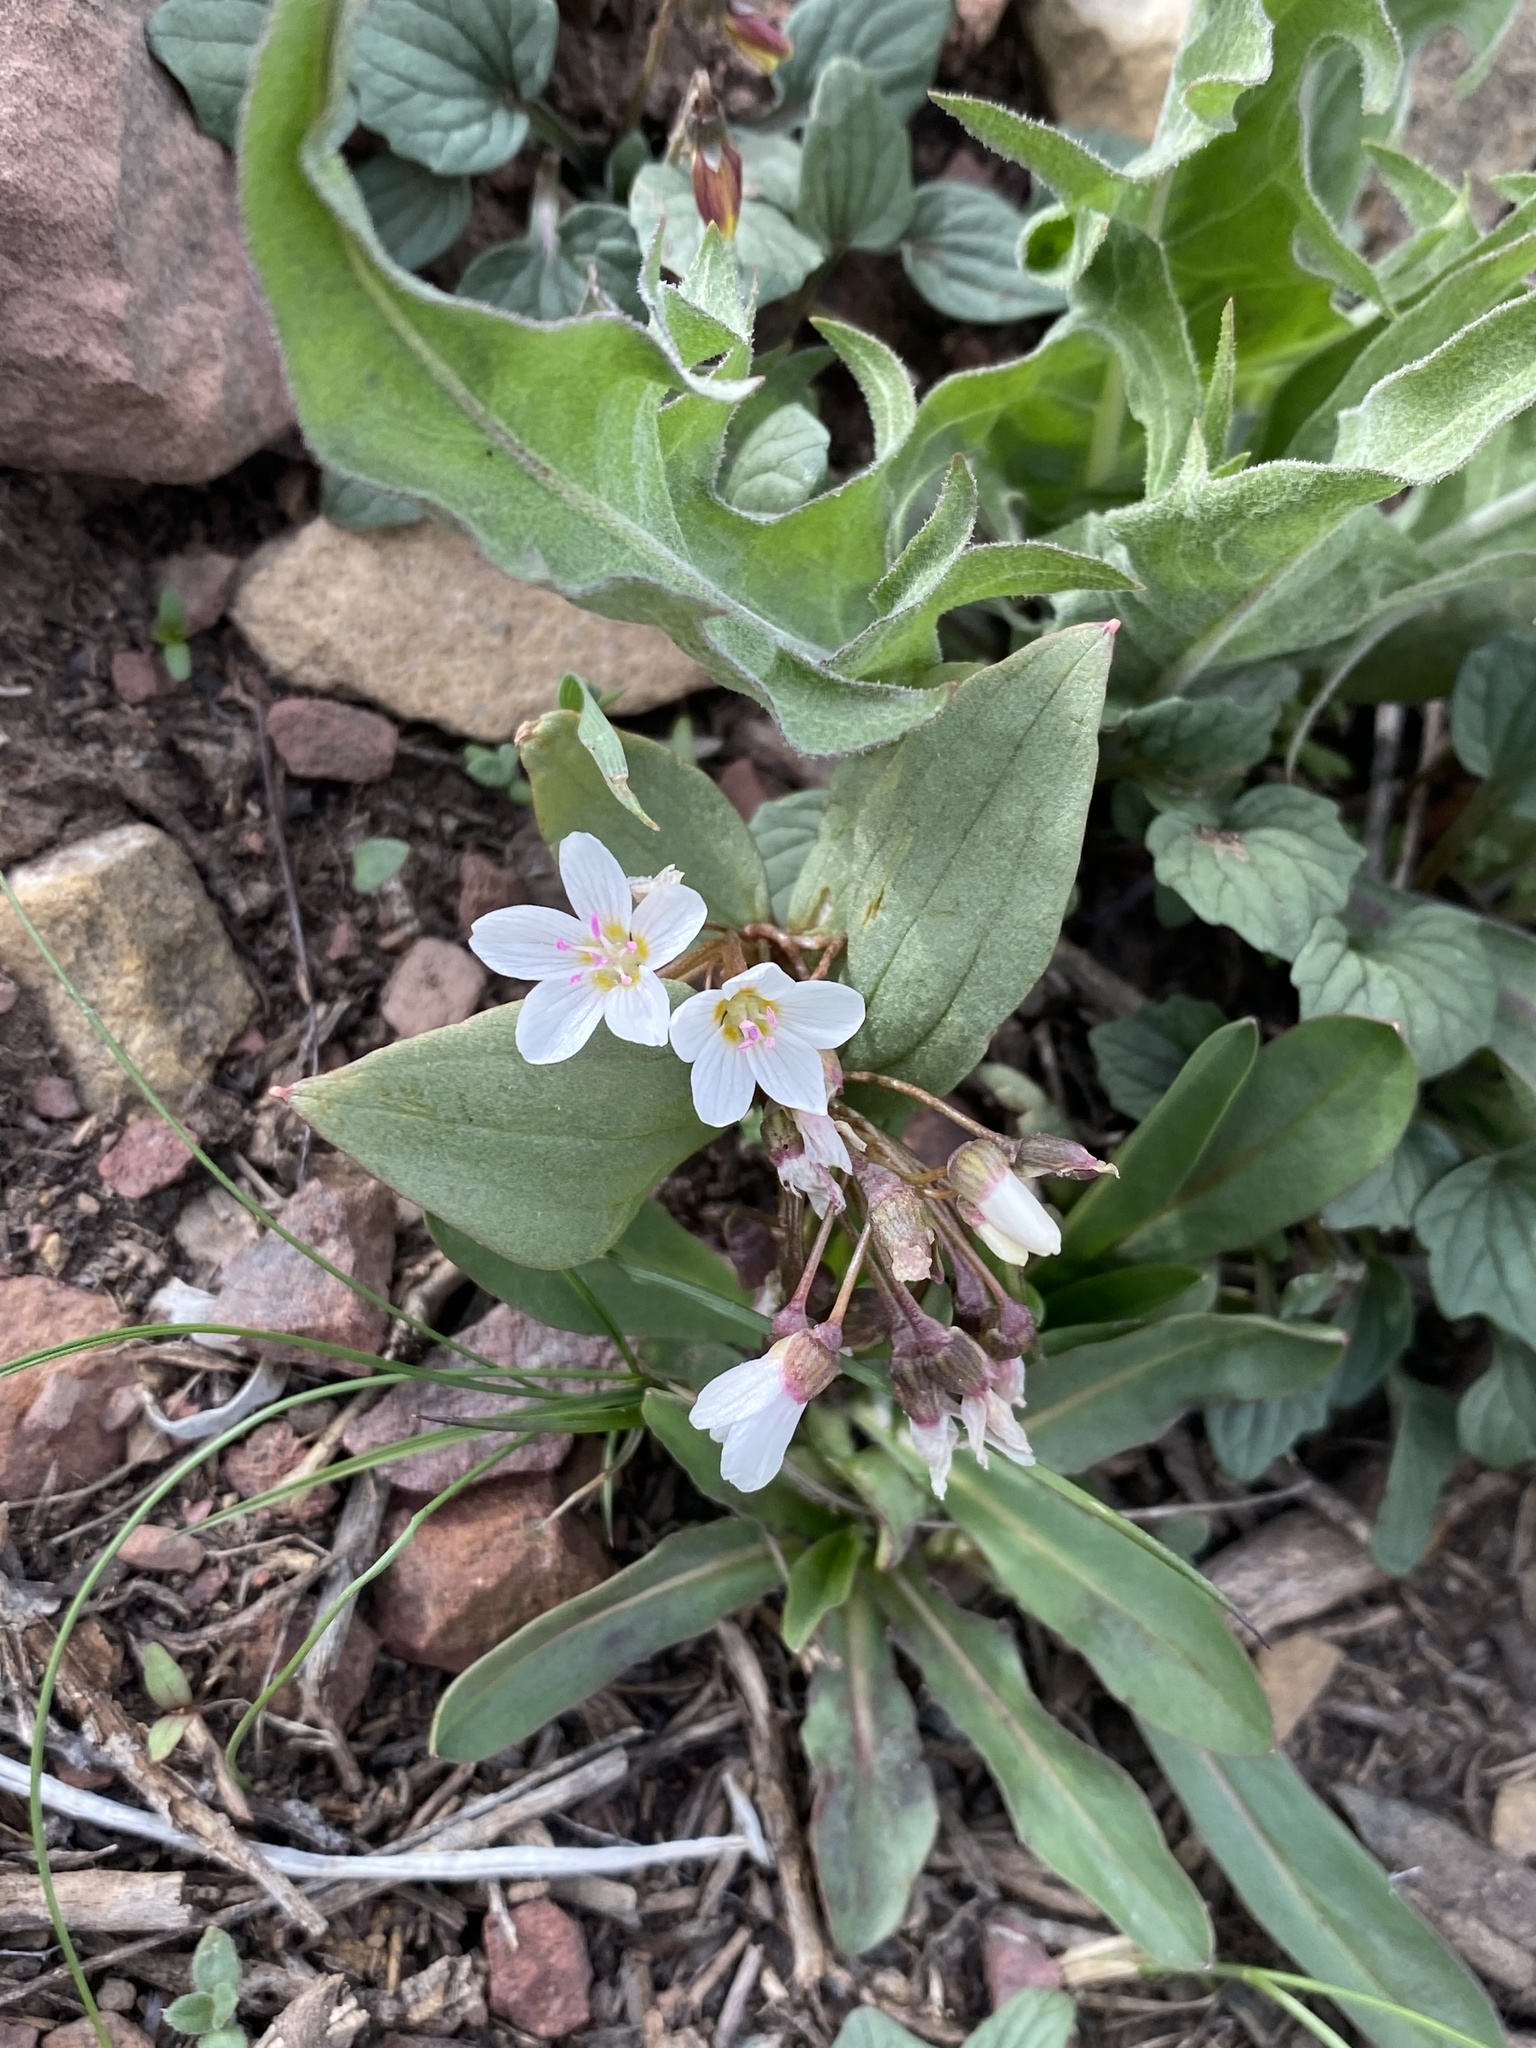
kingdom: Plantae
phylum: Tracheophyta
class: Magnoliopsida
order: Caryophyllales
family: Montiaceae
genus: Claytonia
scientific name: Claytonia lanceolata
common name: Western spring-beauty
